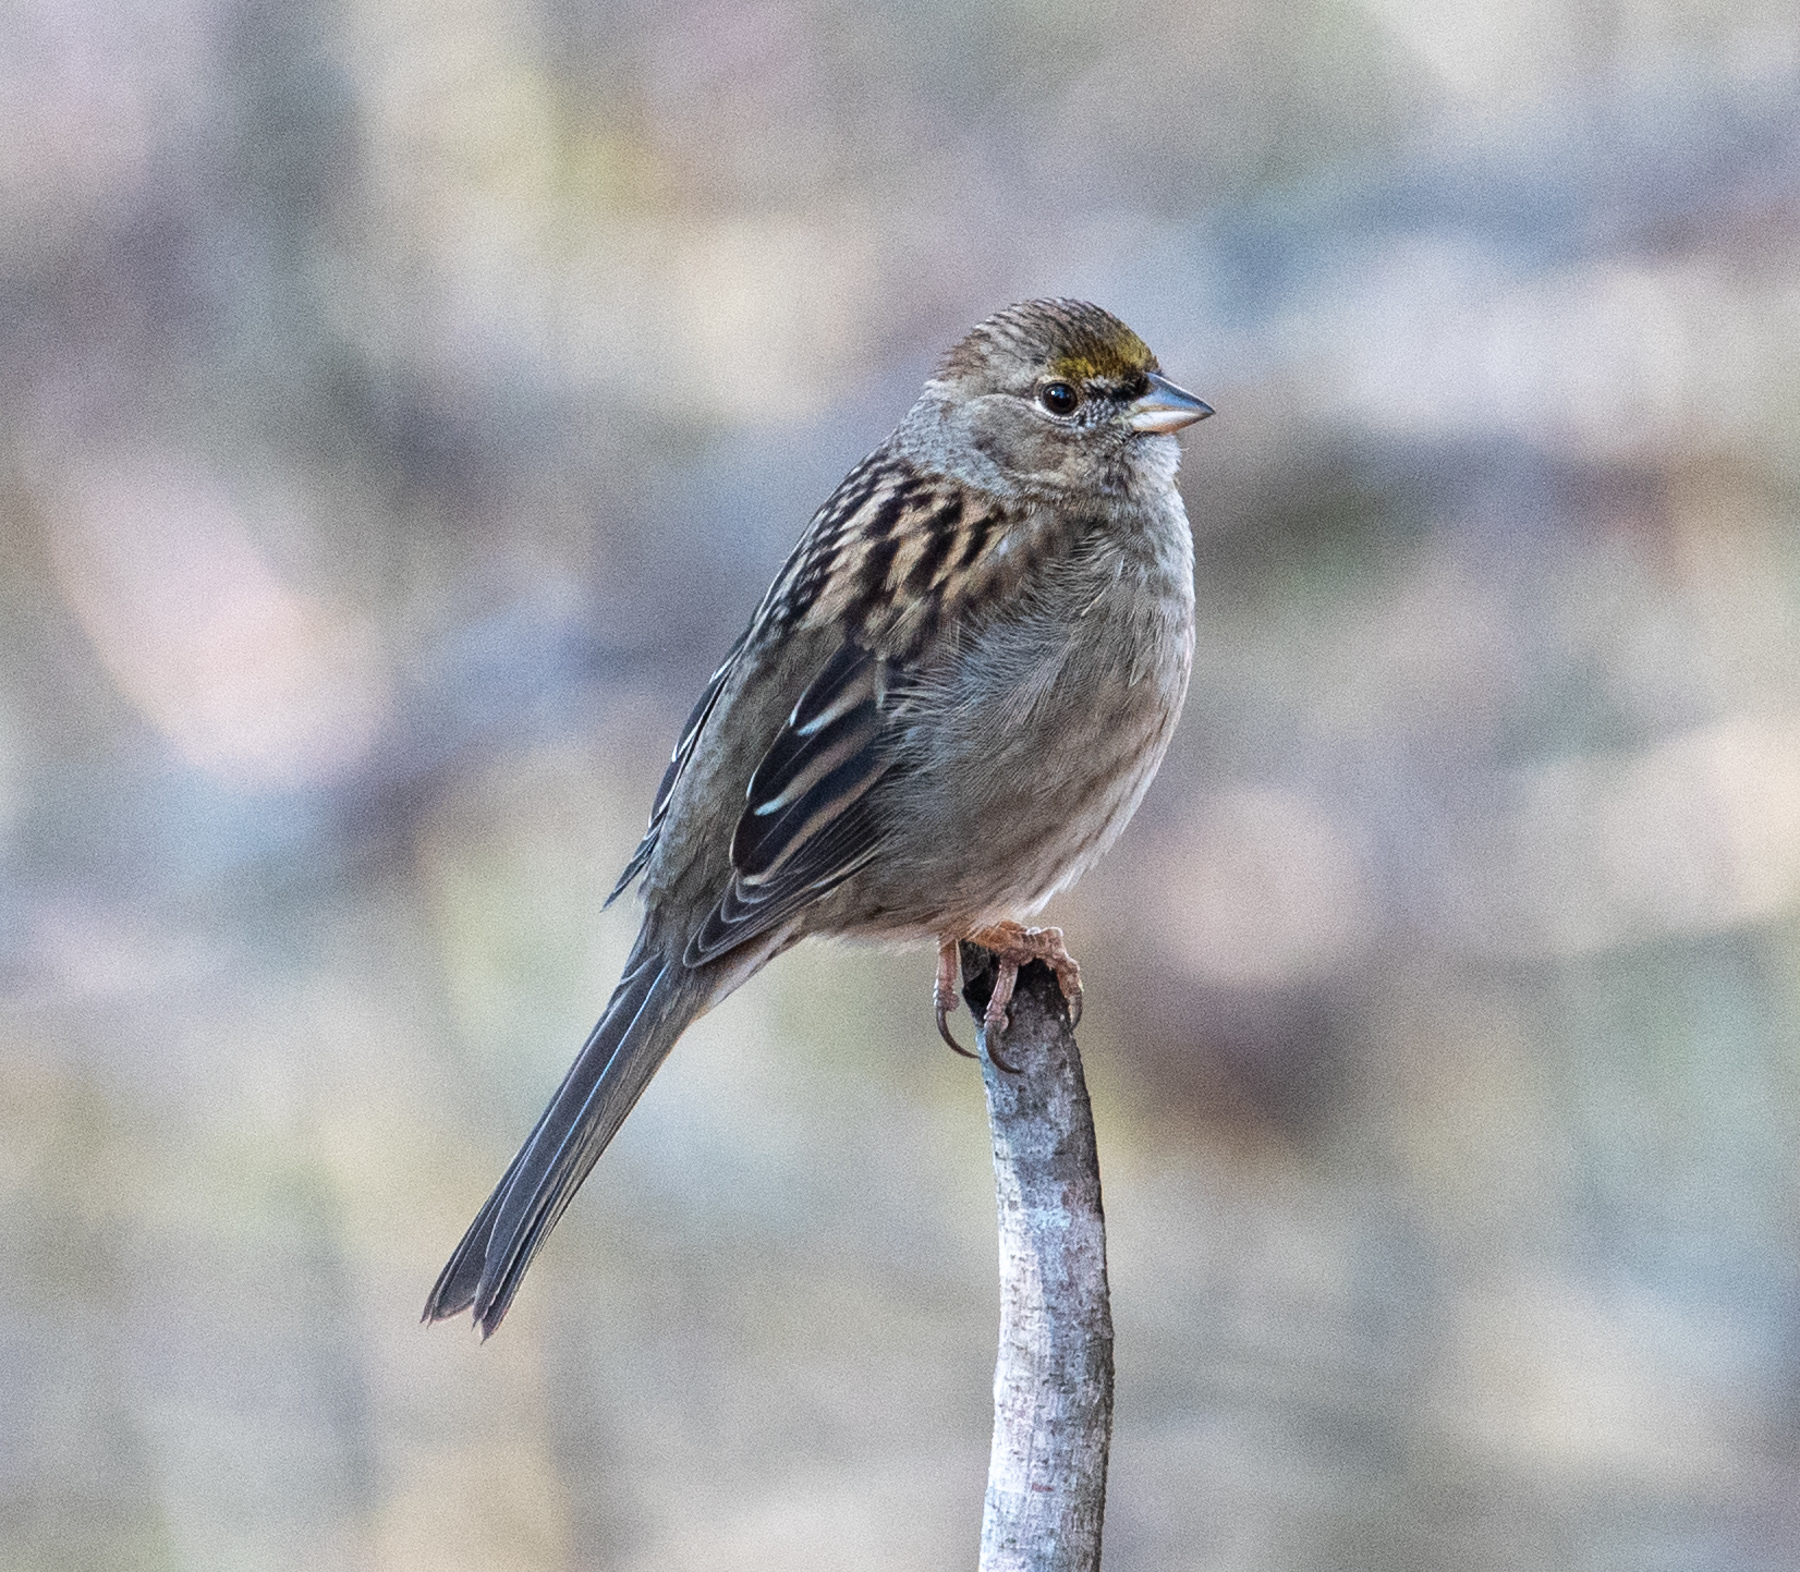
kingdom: Animalia
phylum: Chordata
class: Aves
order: Passeriformes
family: Passerellidae
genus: Zonotrichia
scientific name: Zonotrichia atricapilla
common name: Golden-crowned sparrow
